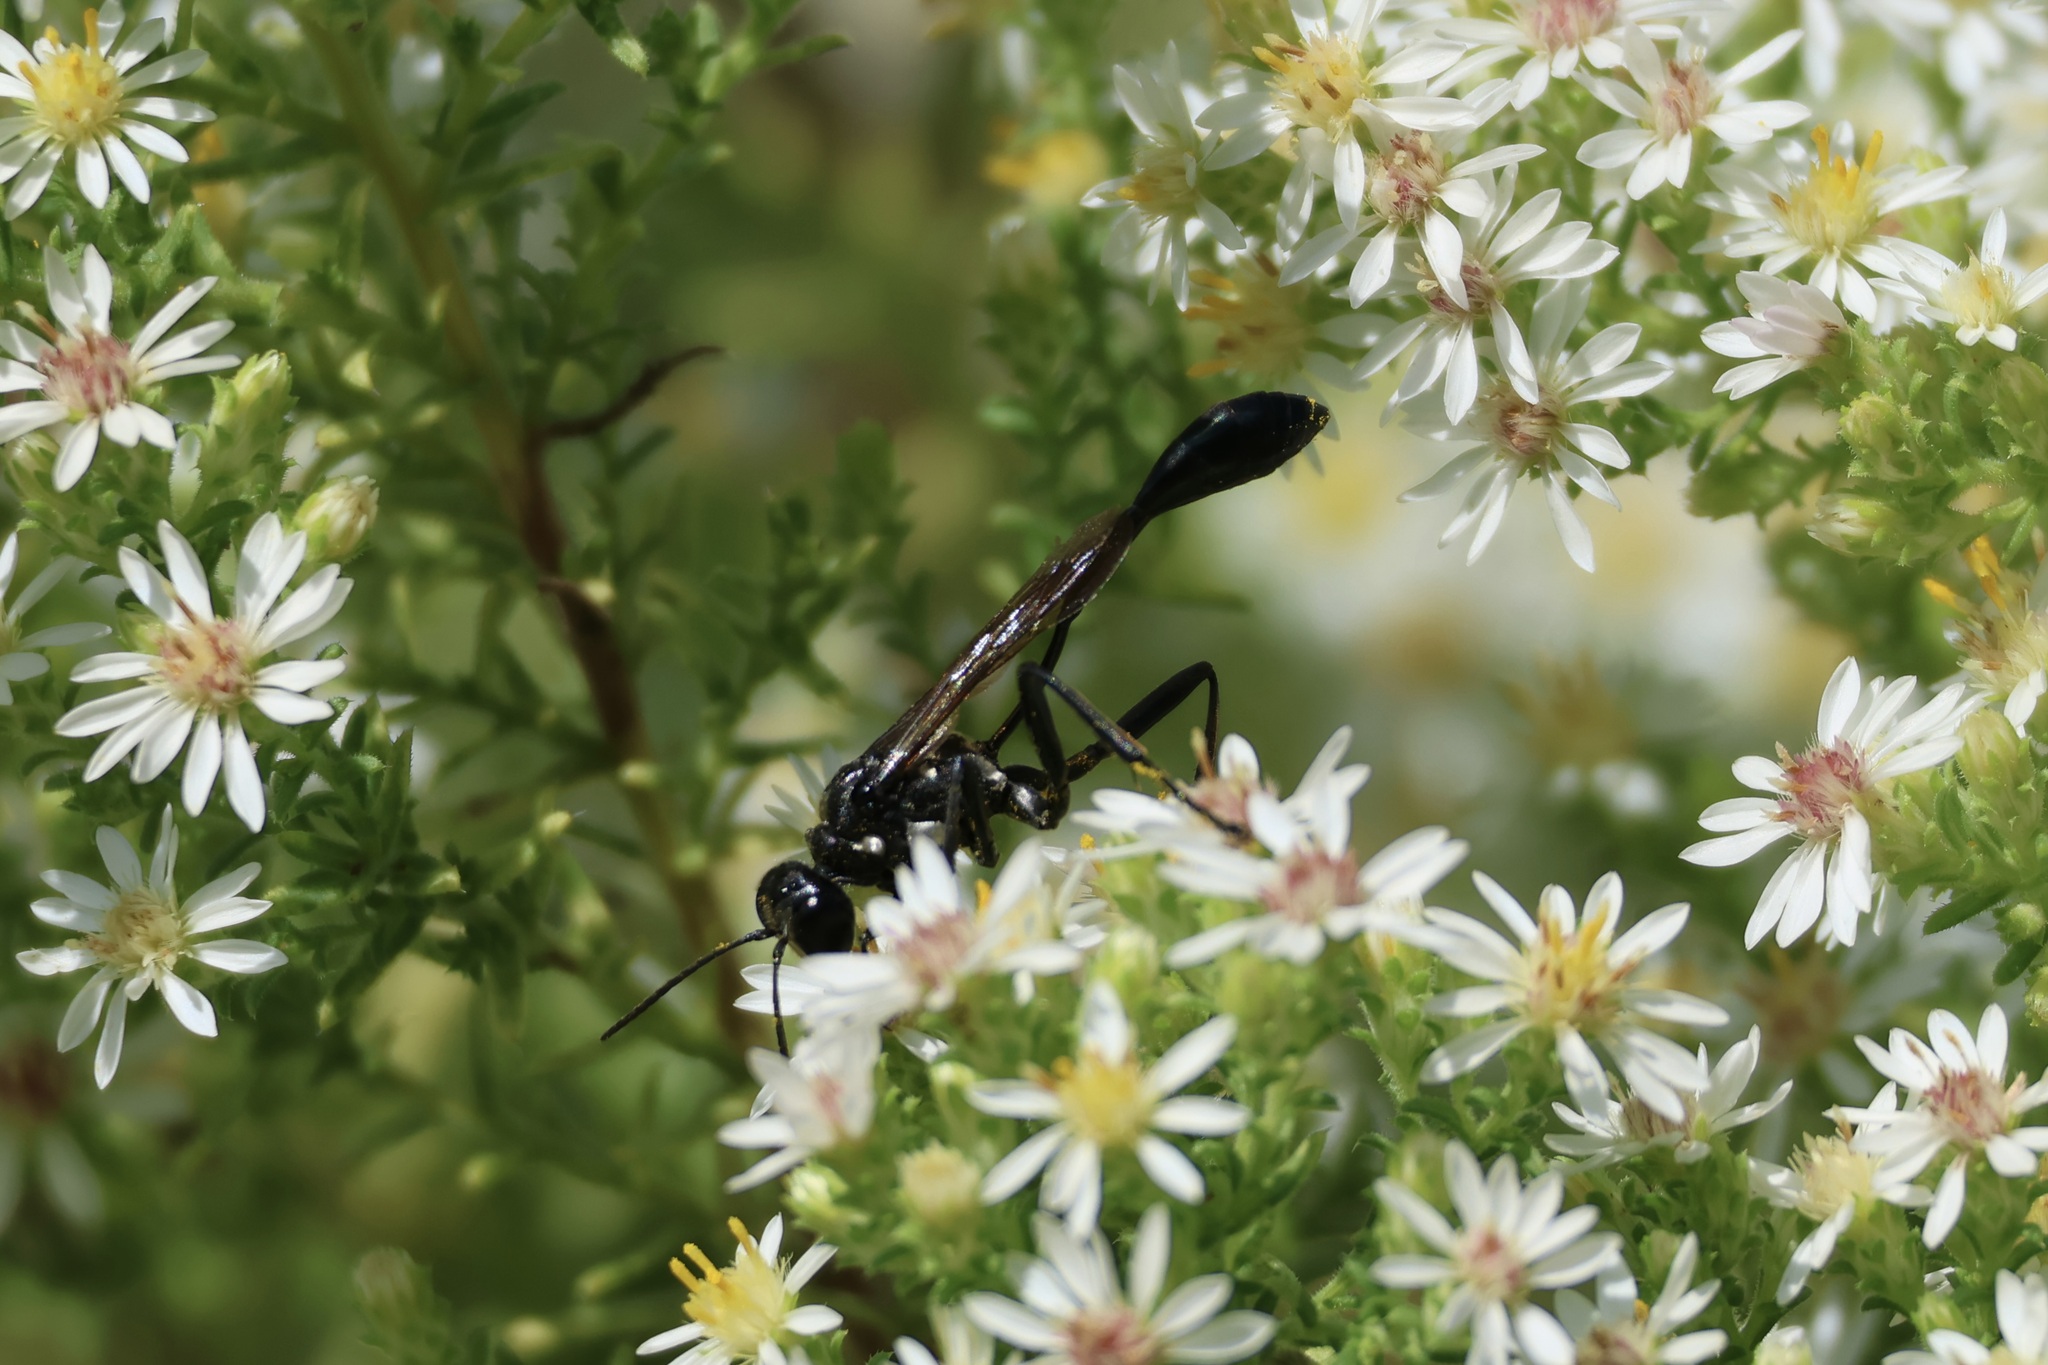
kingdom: Animalia
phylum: Arthropoda
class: Insecta
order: Hymenoptera
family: Sphecidae
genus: Eremnophila
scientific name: Eremnophila aureonotata
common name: Gold-marked thread-waisted wasp
